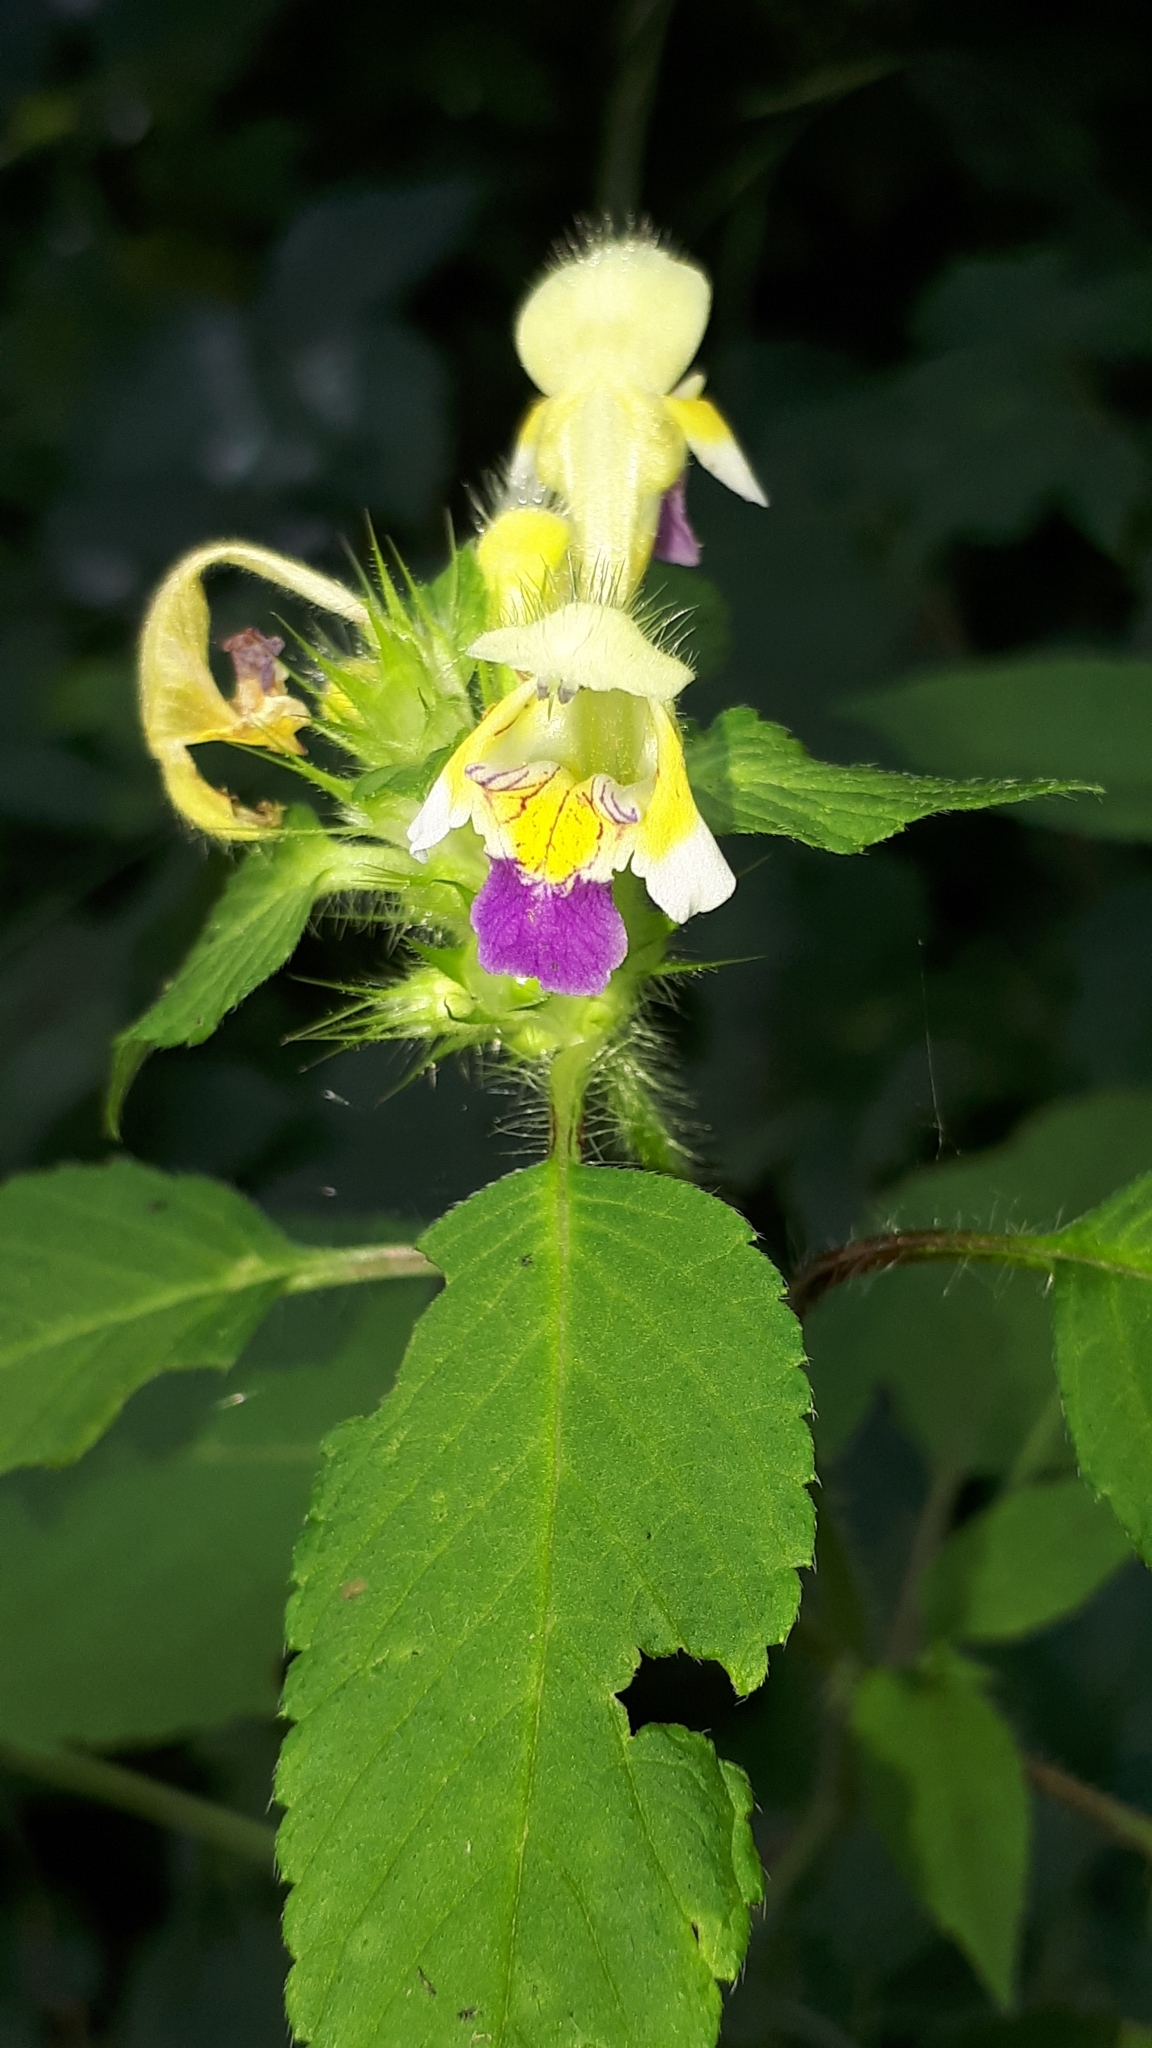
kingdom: Plantae
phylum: Tracheophyta
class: Magnoliopsida
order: Lamiales
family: Lamiaceae
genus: Galeopsis
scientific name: Galeopsis speciosa
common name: Large-flowered hemp-nettle
